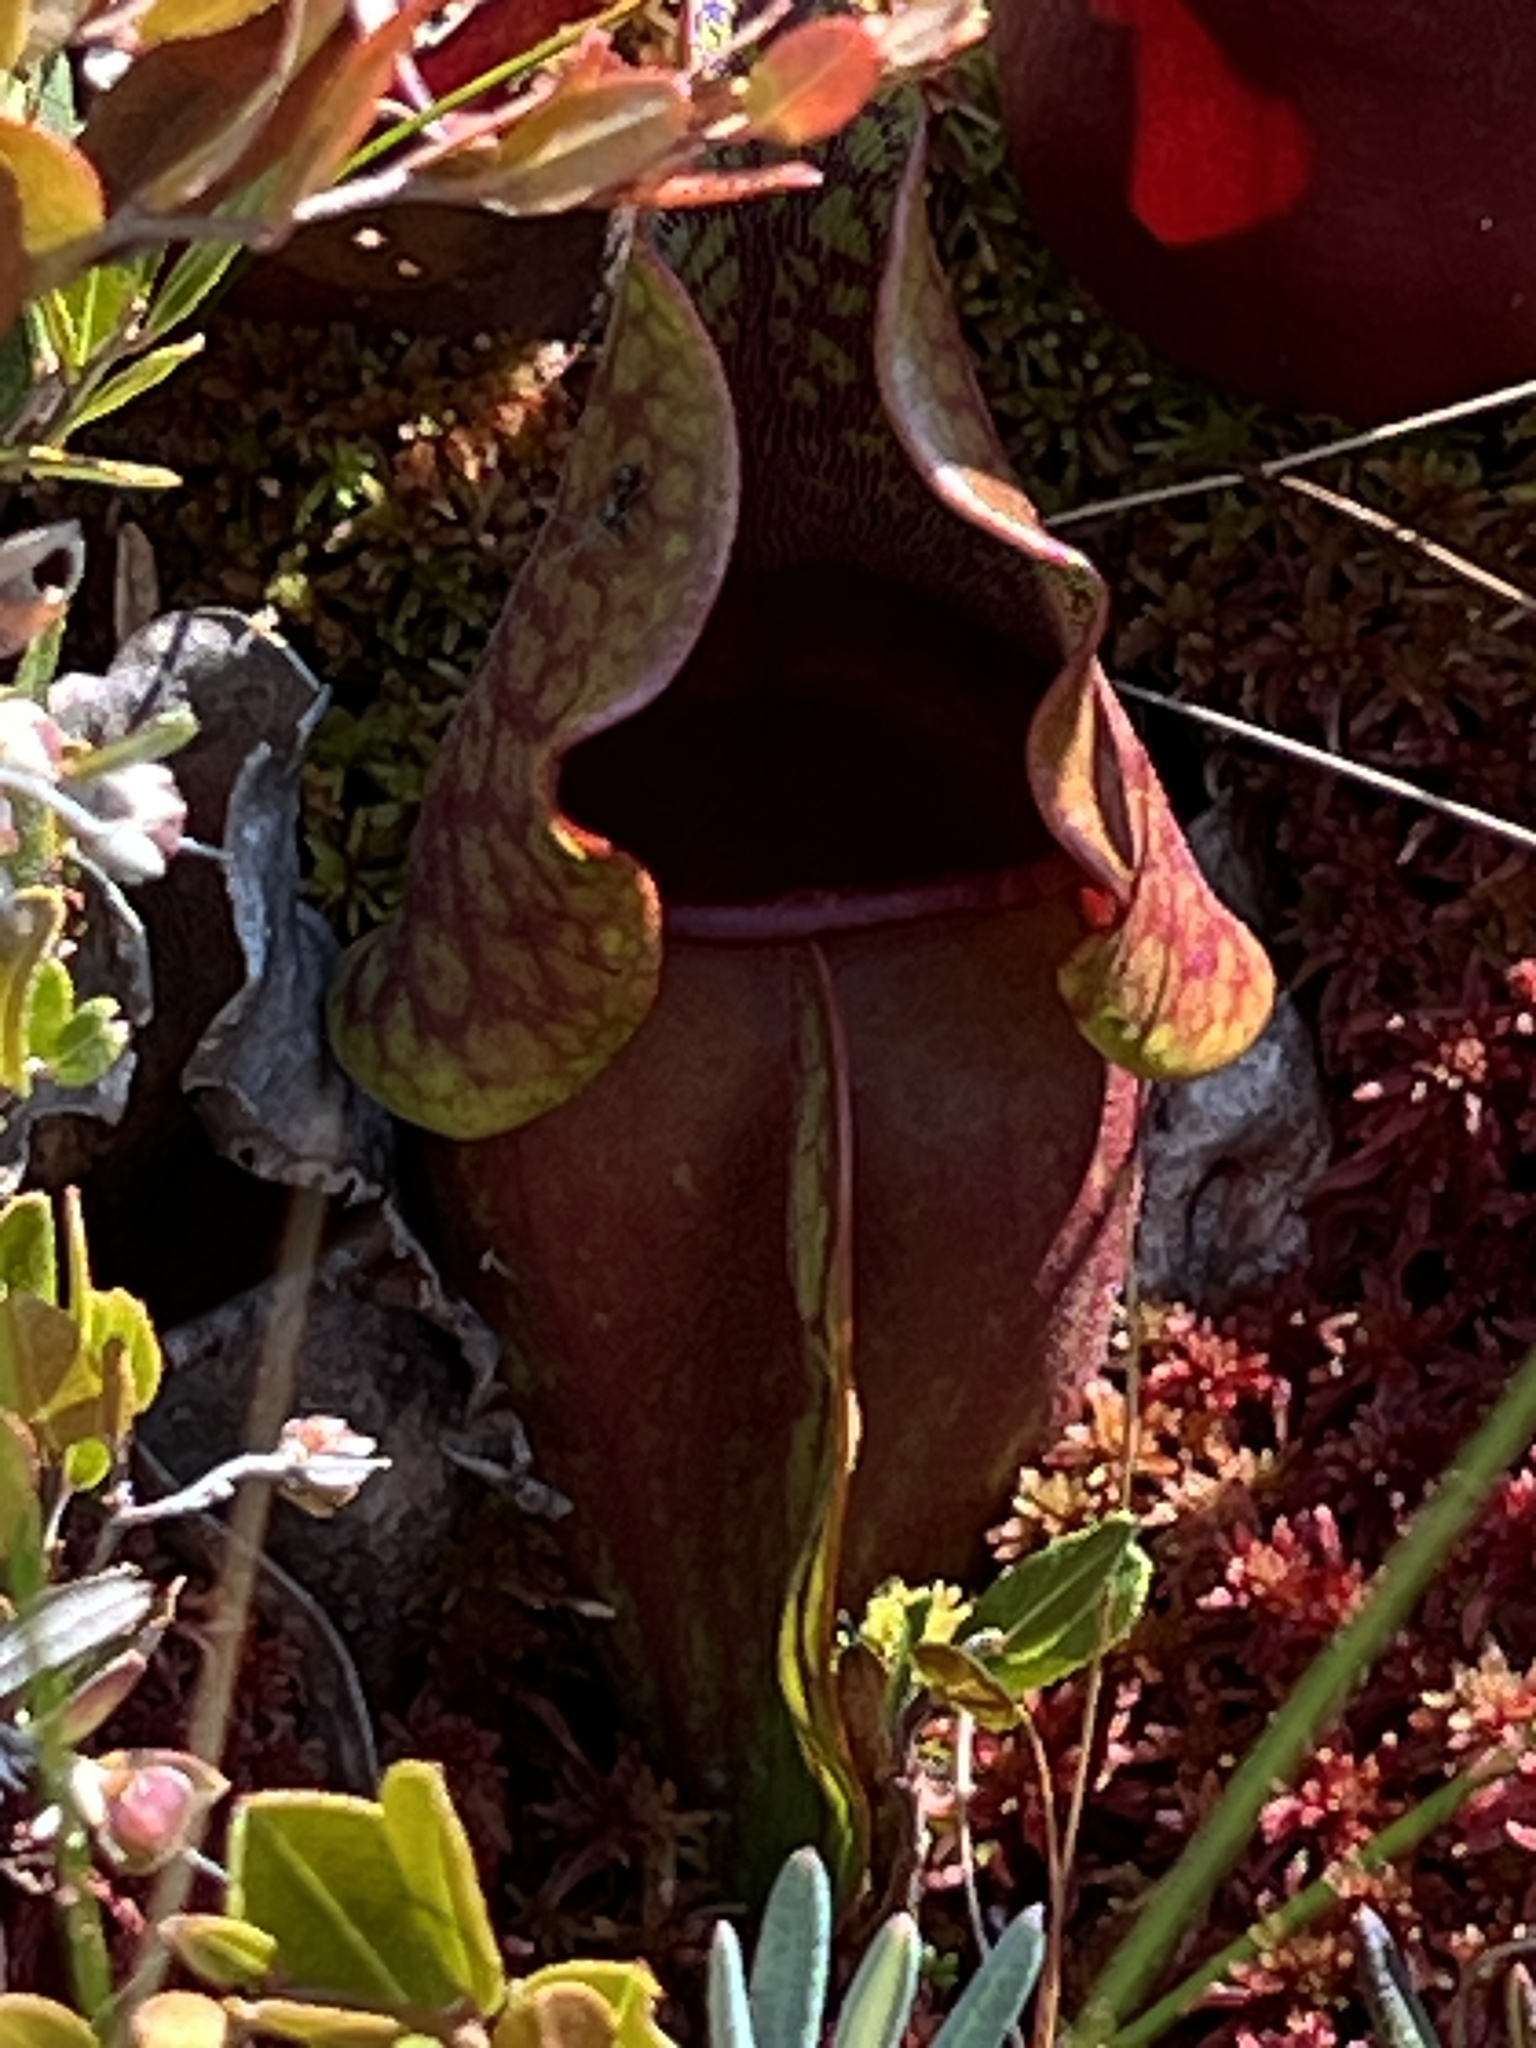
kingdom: Plantae
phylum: Tracheophyta
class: Magnoliopsida
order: Ericales
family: Sarraceniaceae
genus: Sarracenia
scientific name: Sarracenia purpurea
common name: Pitcherplant
